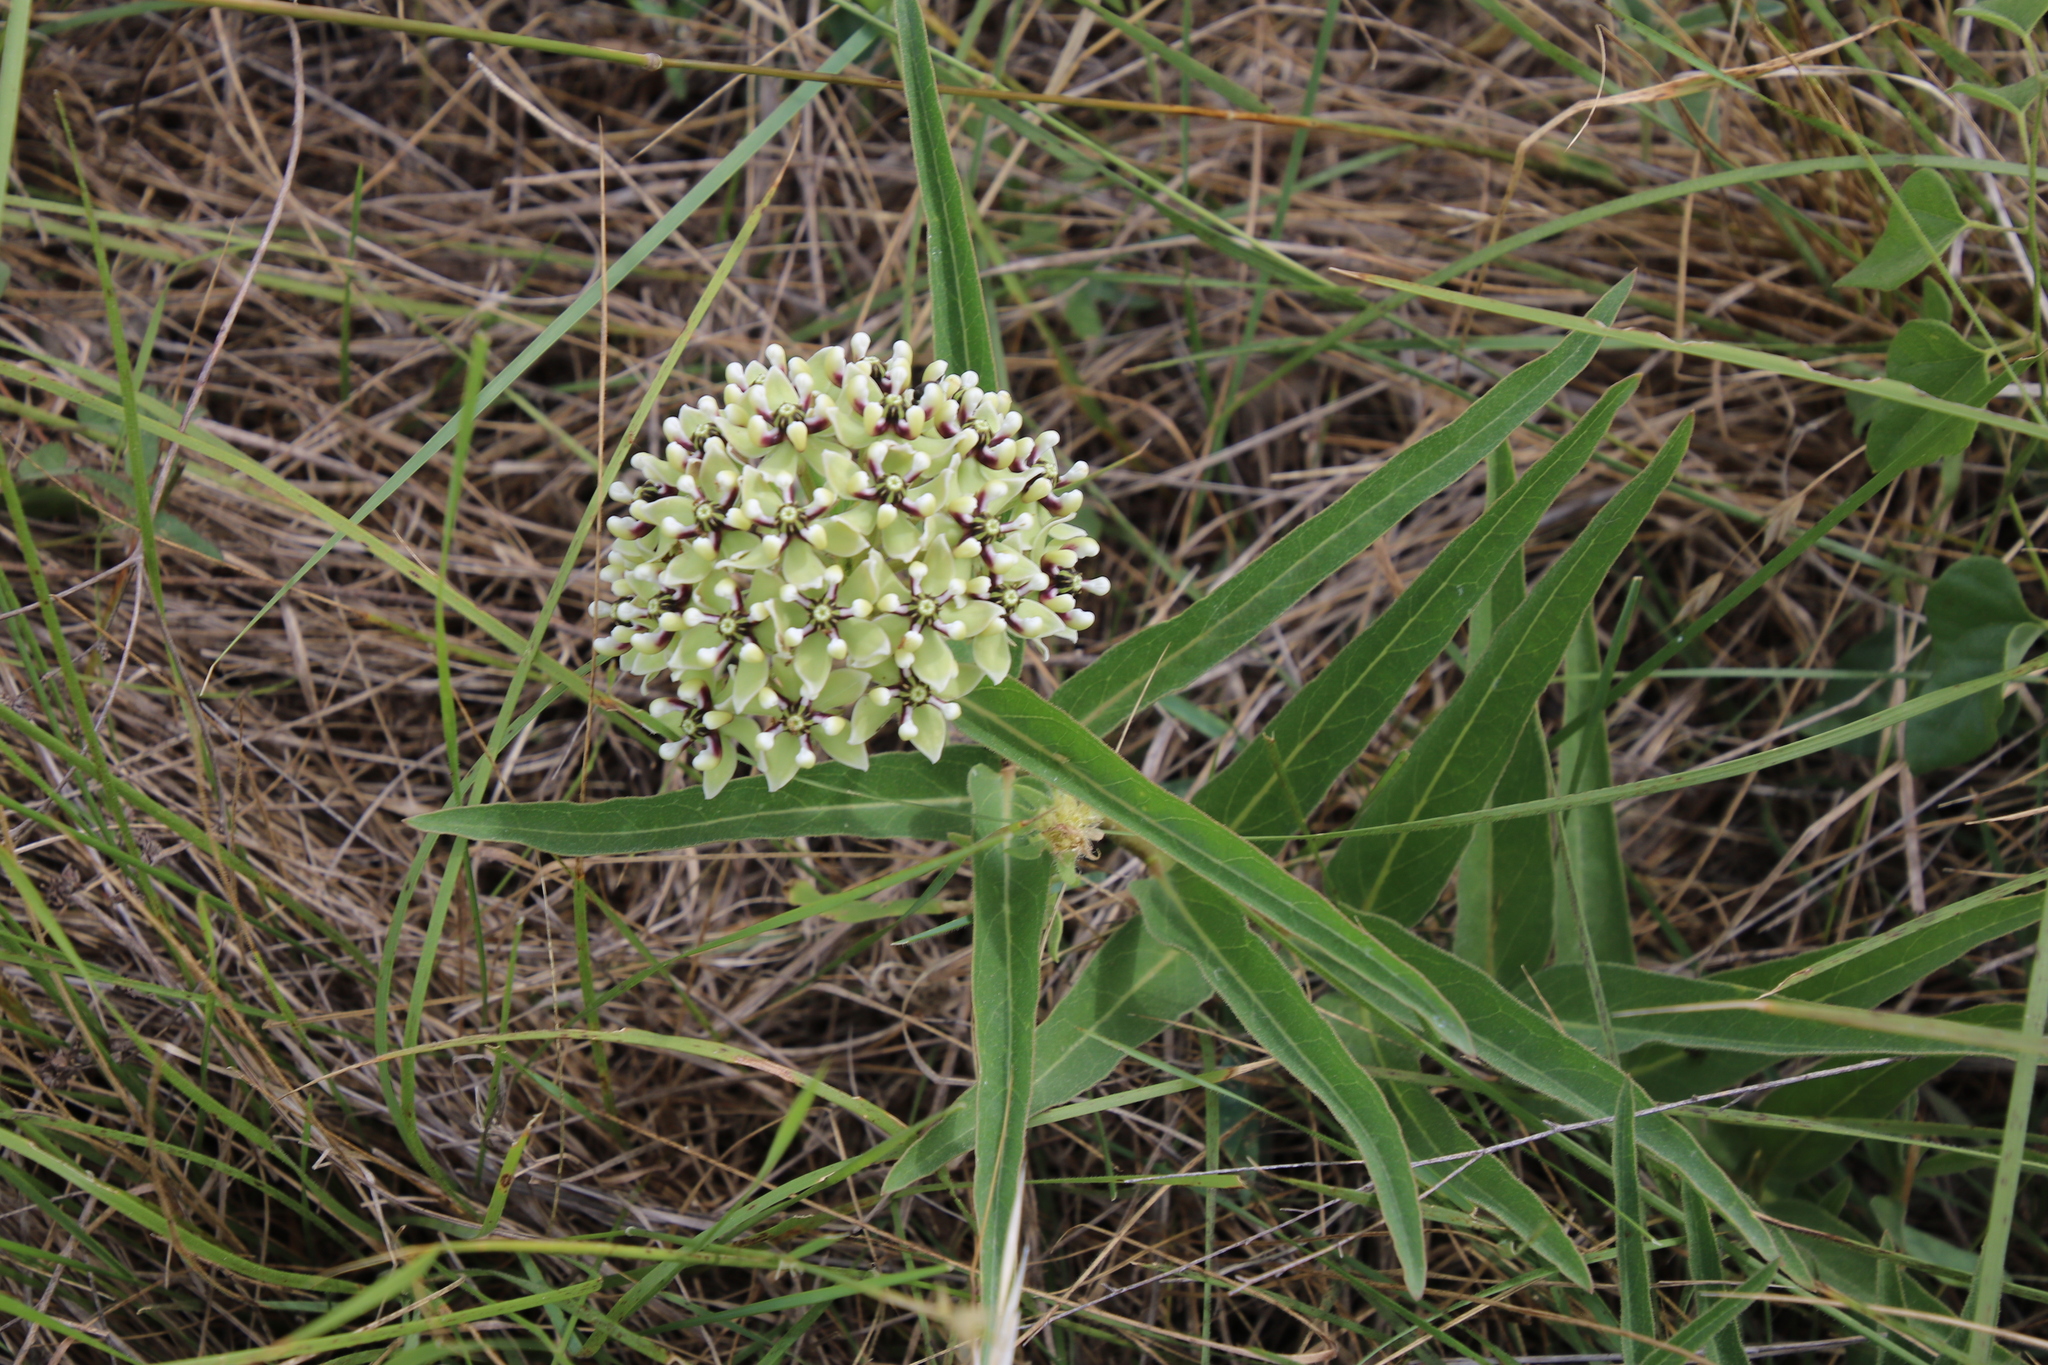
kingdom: Plantae
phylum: Tracheophyta
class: Magnoliopsida
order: Gentianales
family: Apocynaceae
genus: Asclepias
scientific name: Asclepias asperula
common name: Antelope horns
